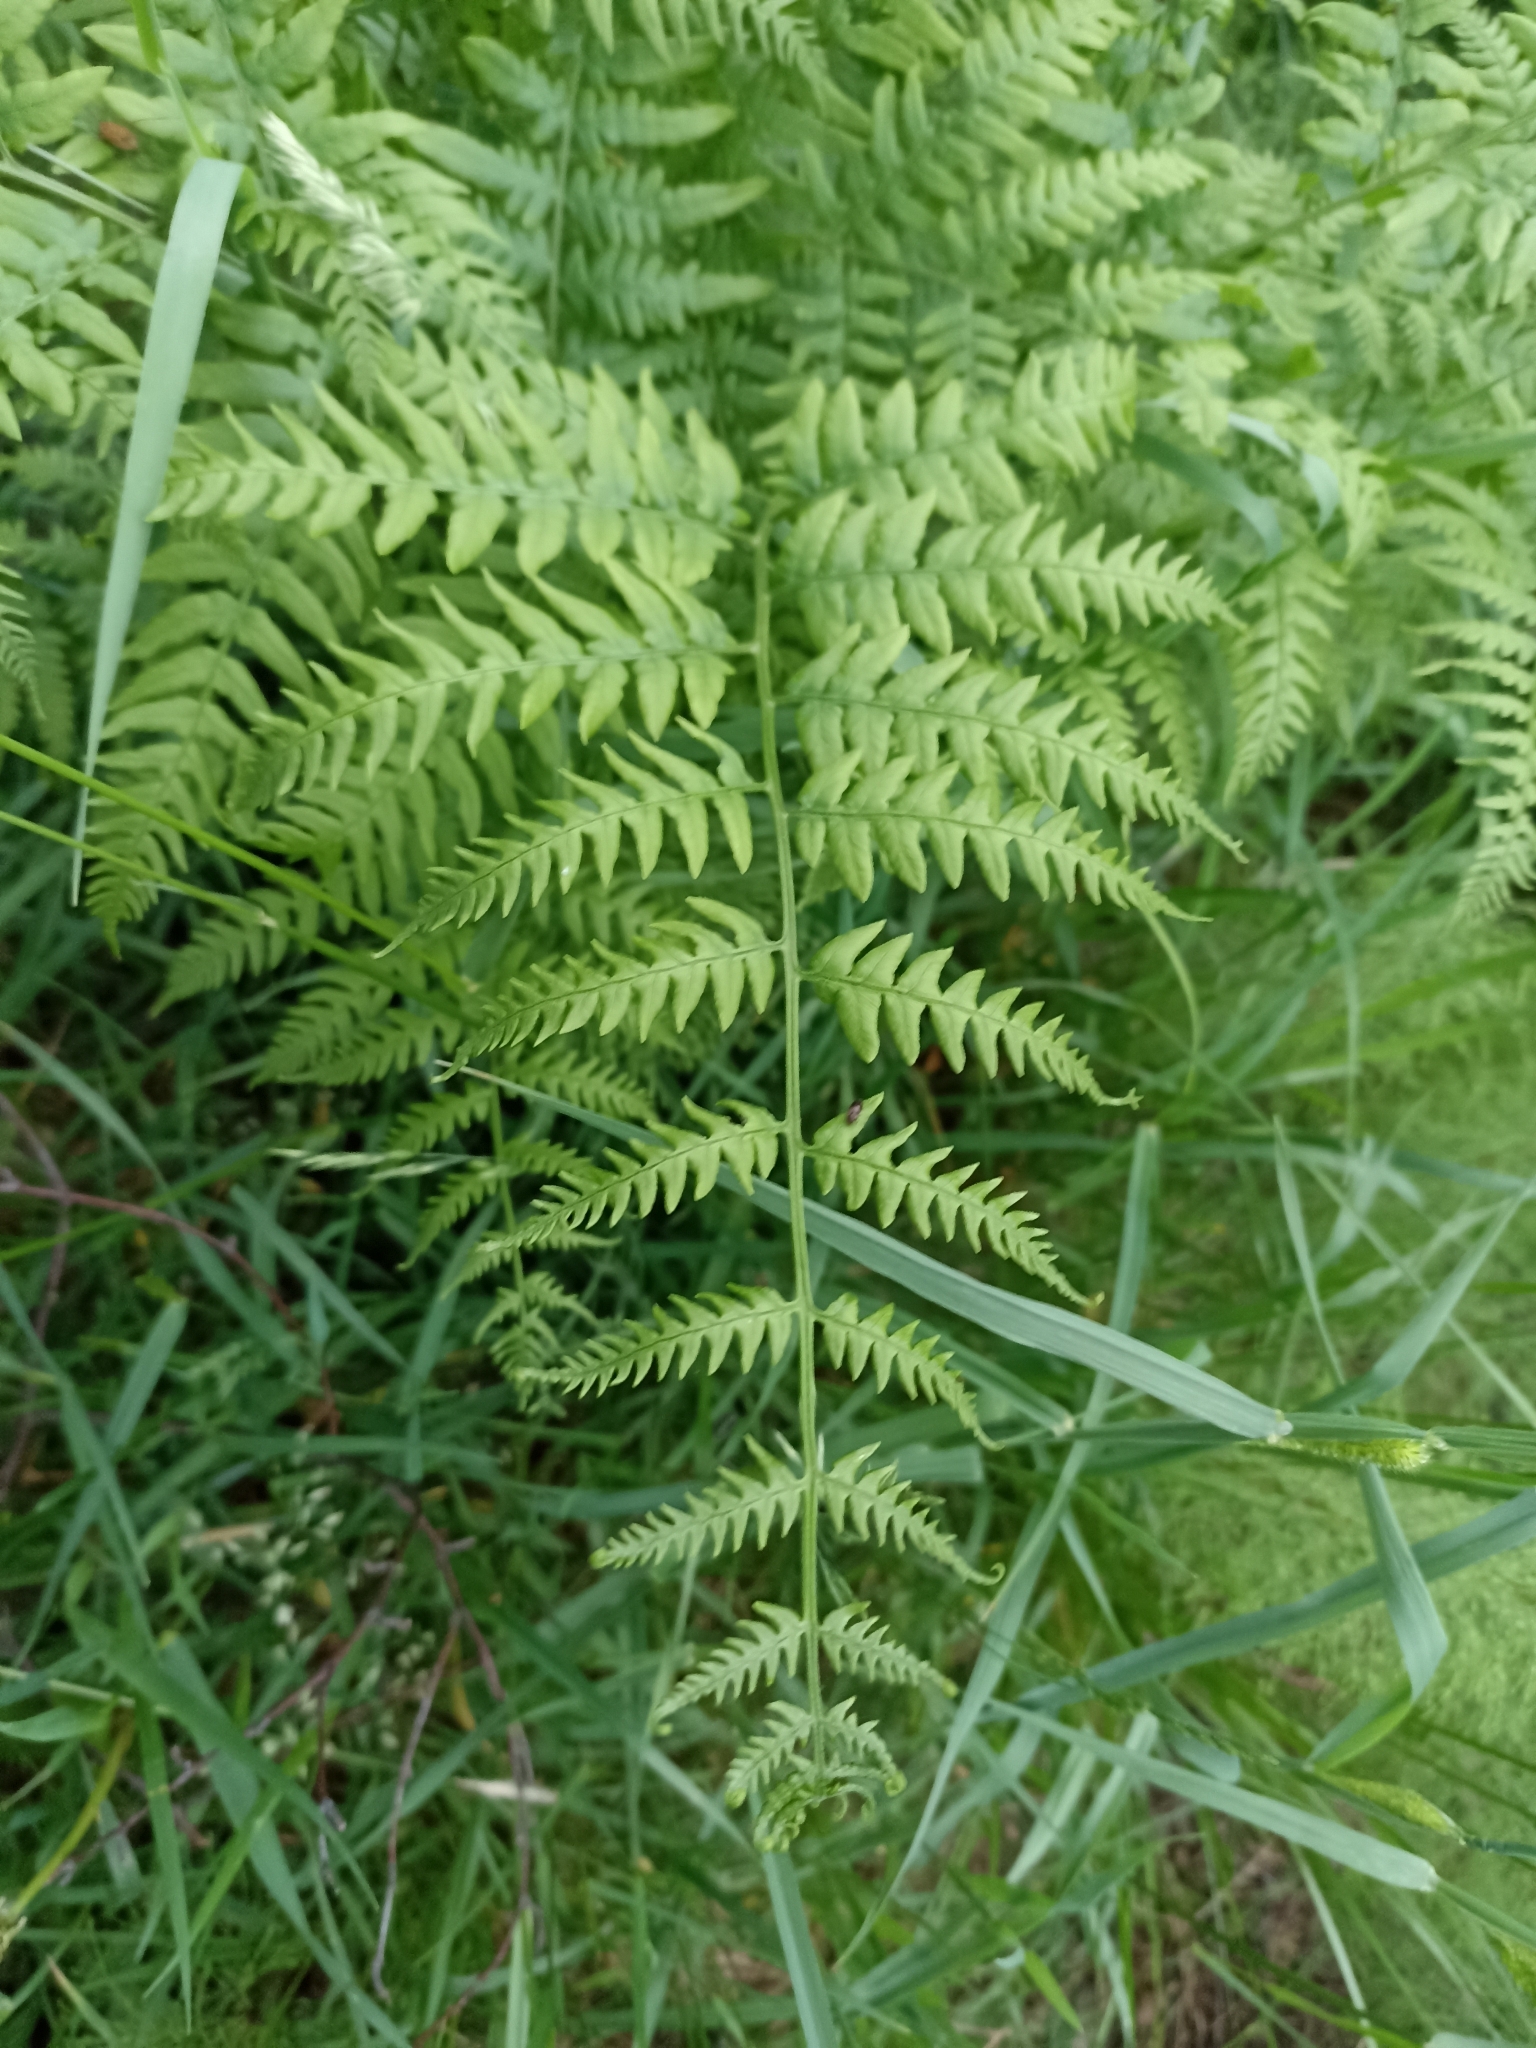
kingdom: Plantae
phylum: Tracheophyta
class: Polypodiopsida
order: Polypodiales
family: Dennstaedtiaceae
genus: Pteridium
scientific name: Pteridium aquilinum
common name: Bracken
